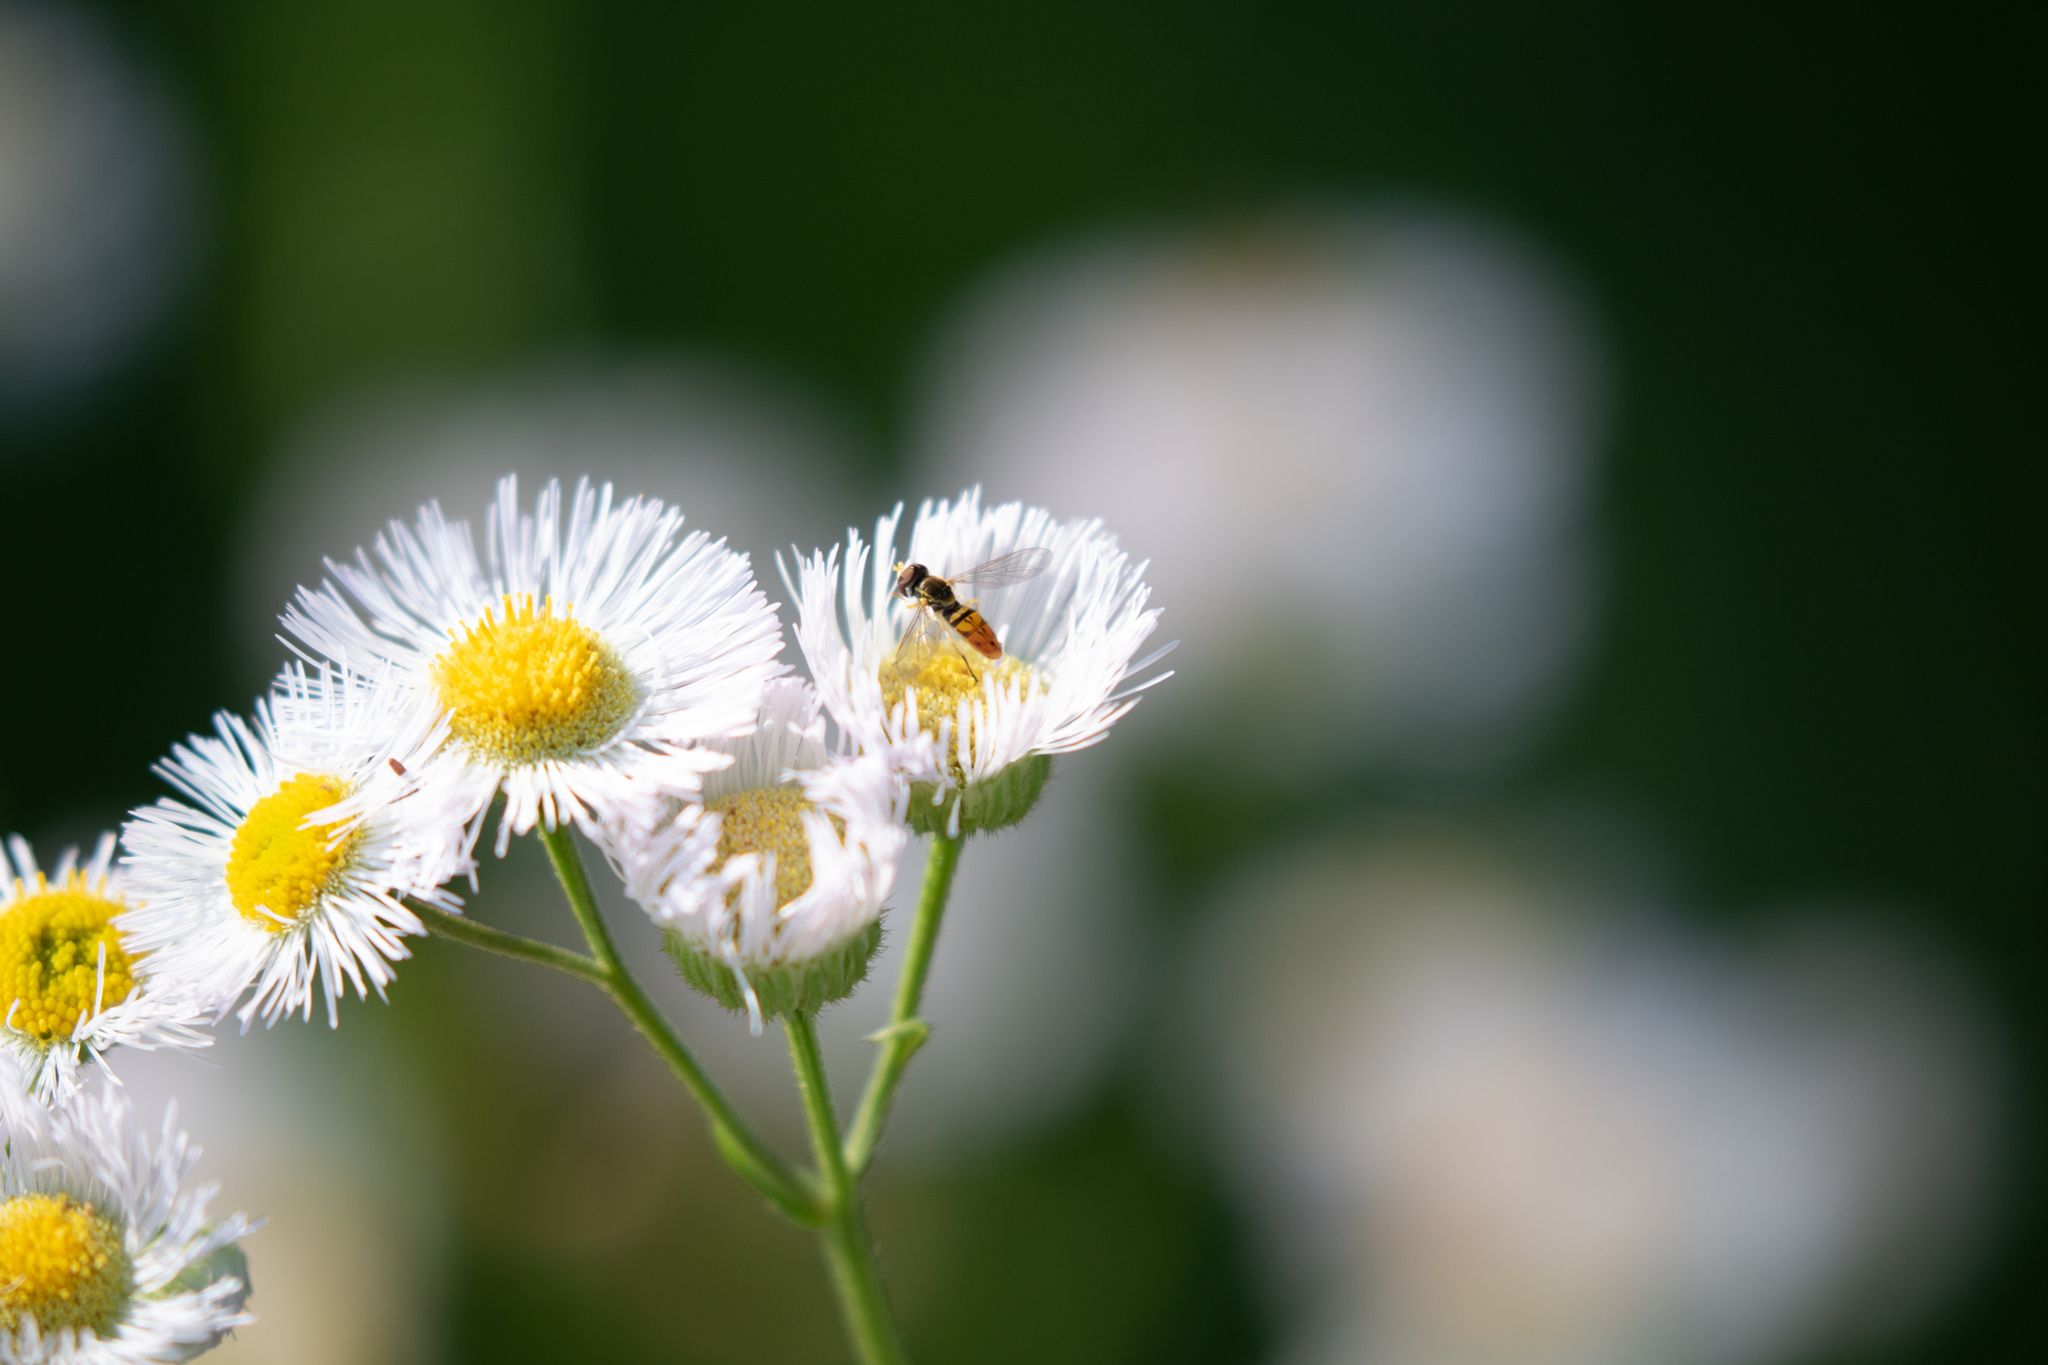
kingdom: Animalia
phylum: Arthropoda
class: Insecta
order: Diptera
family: Syrphidae
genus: Toxomerus
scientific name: Toxomerus marginatus
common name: Syrphid fly
